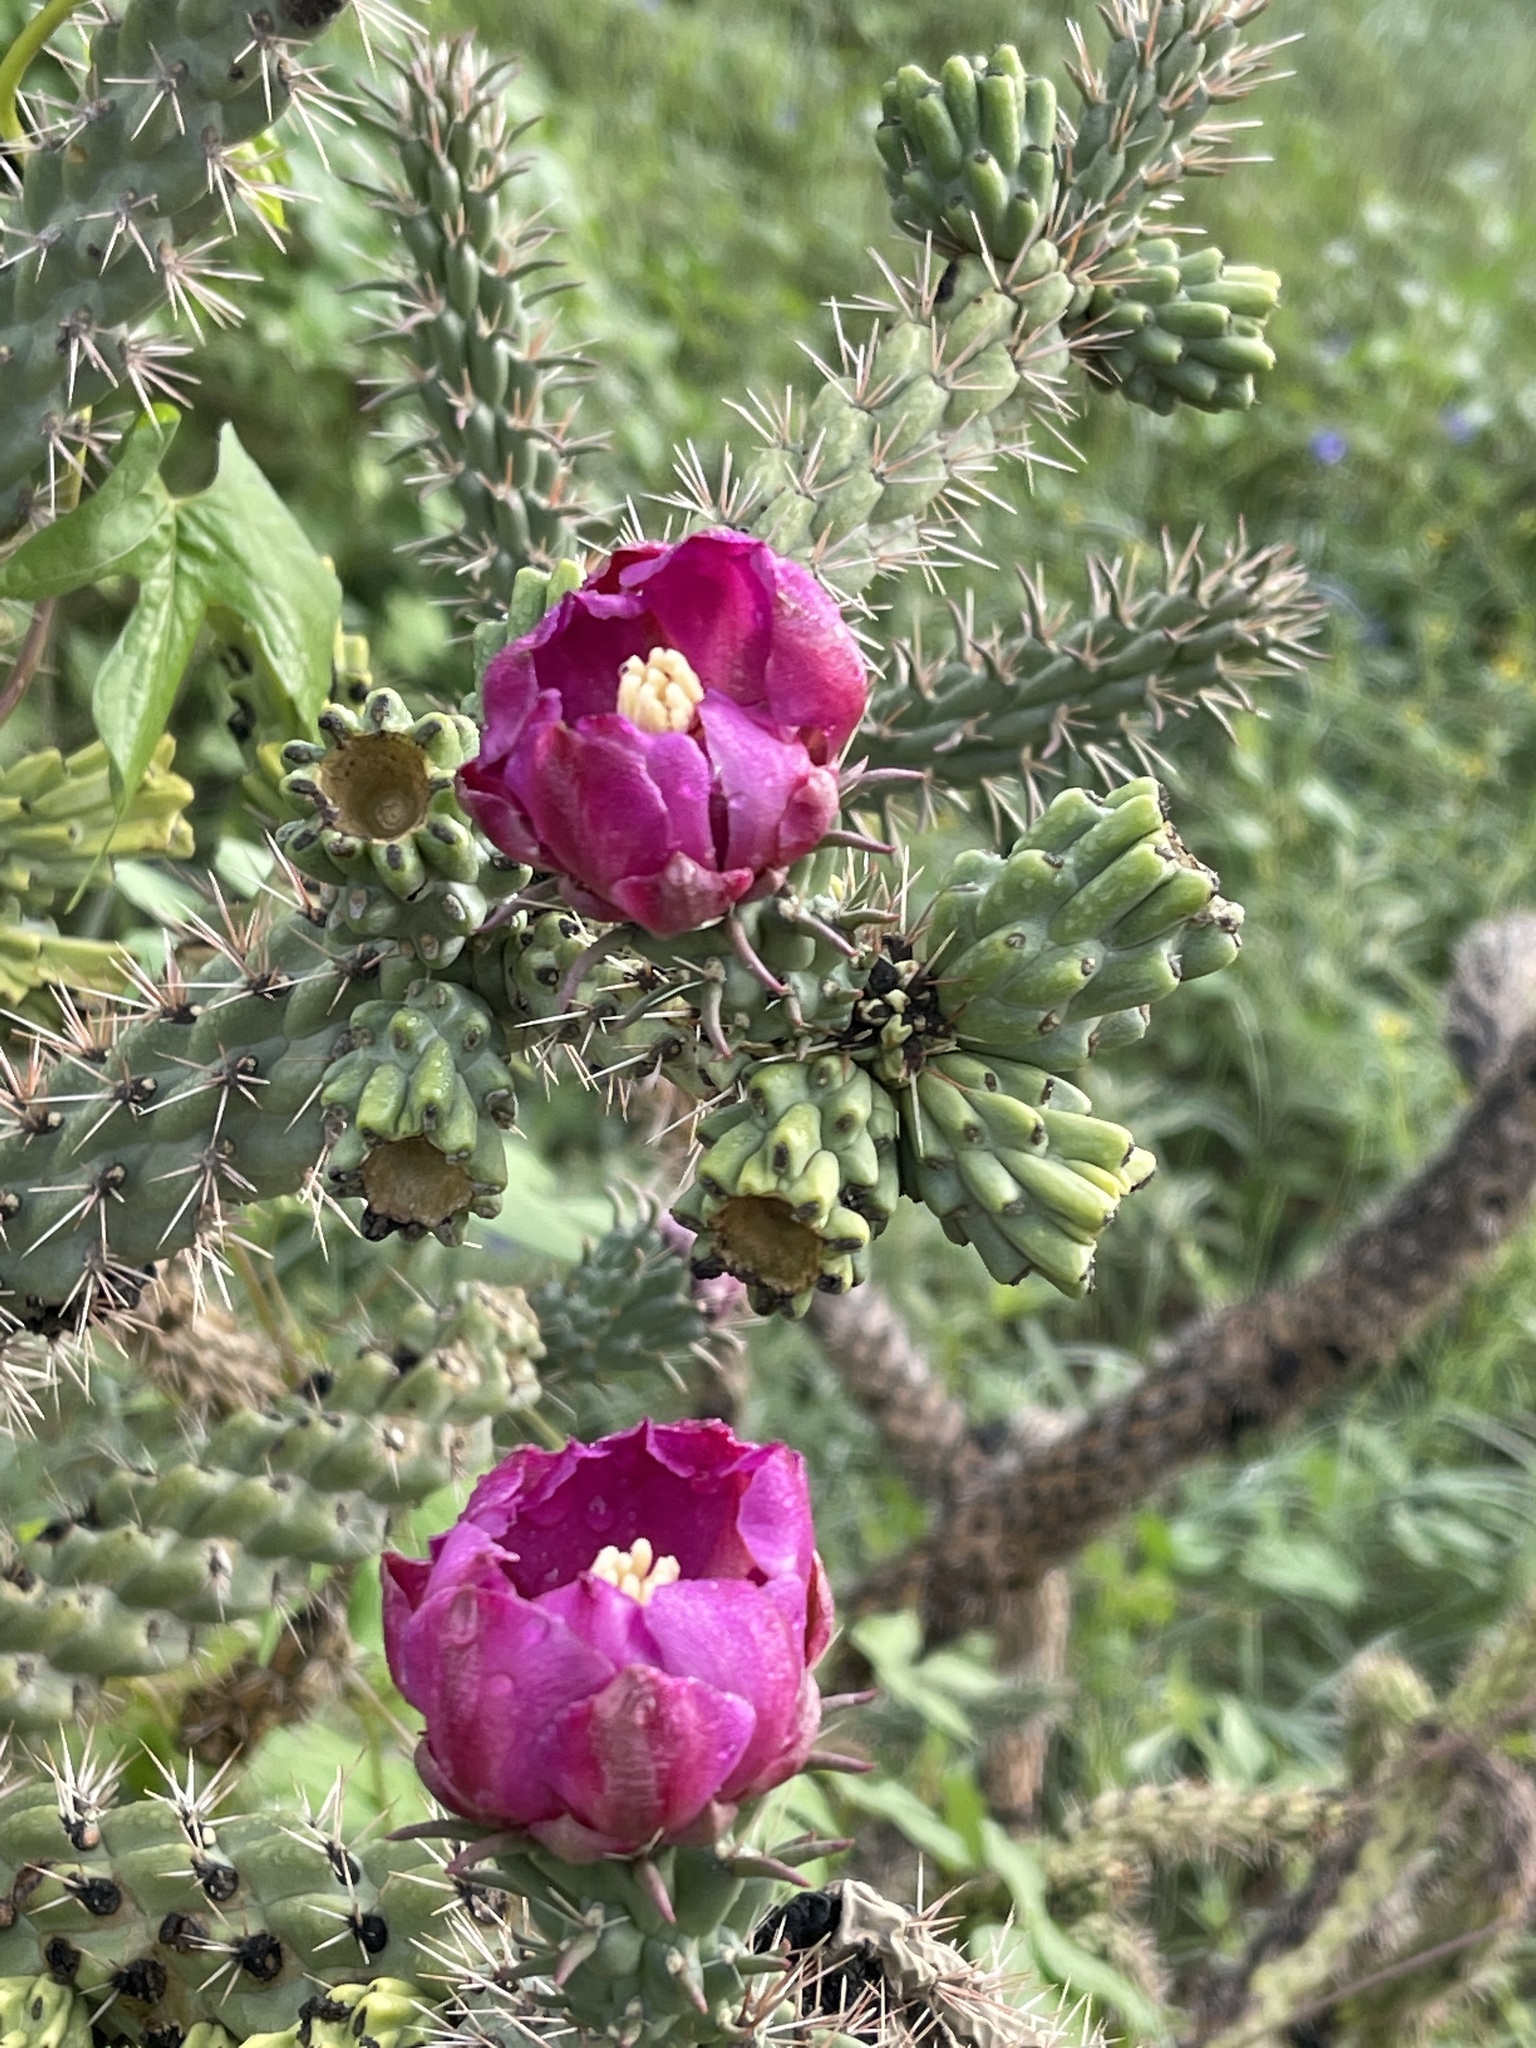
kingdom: Plantae
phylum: Tracheophyta
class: Magnoliopsida
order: Caryophyllales
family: Cactaceae
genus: Cylindropuntia
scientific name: Cylindropuntia imbricata
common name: Candelabrum cactus
